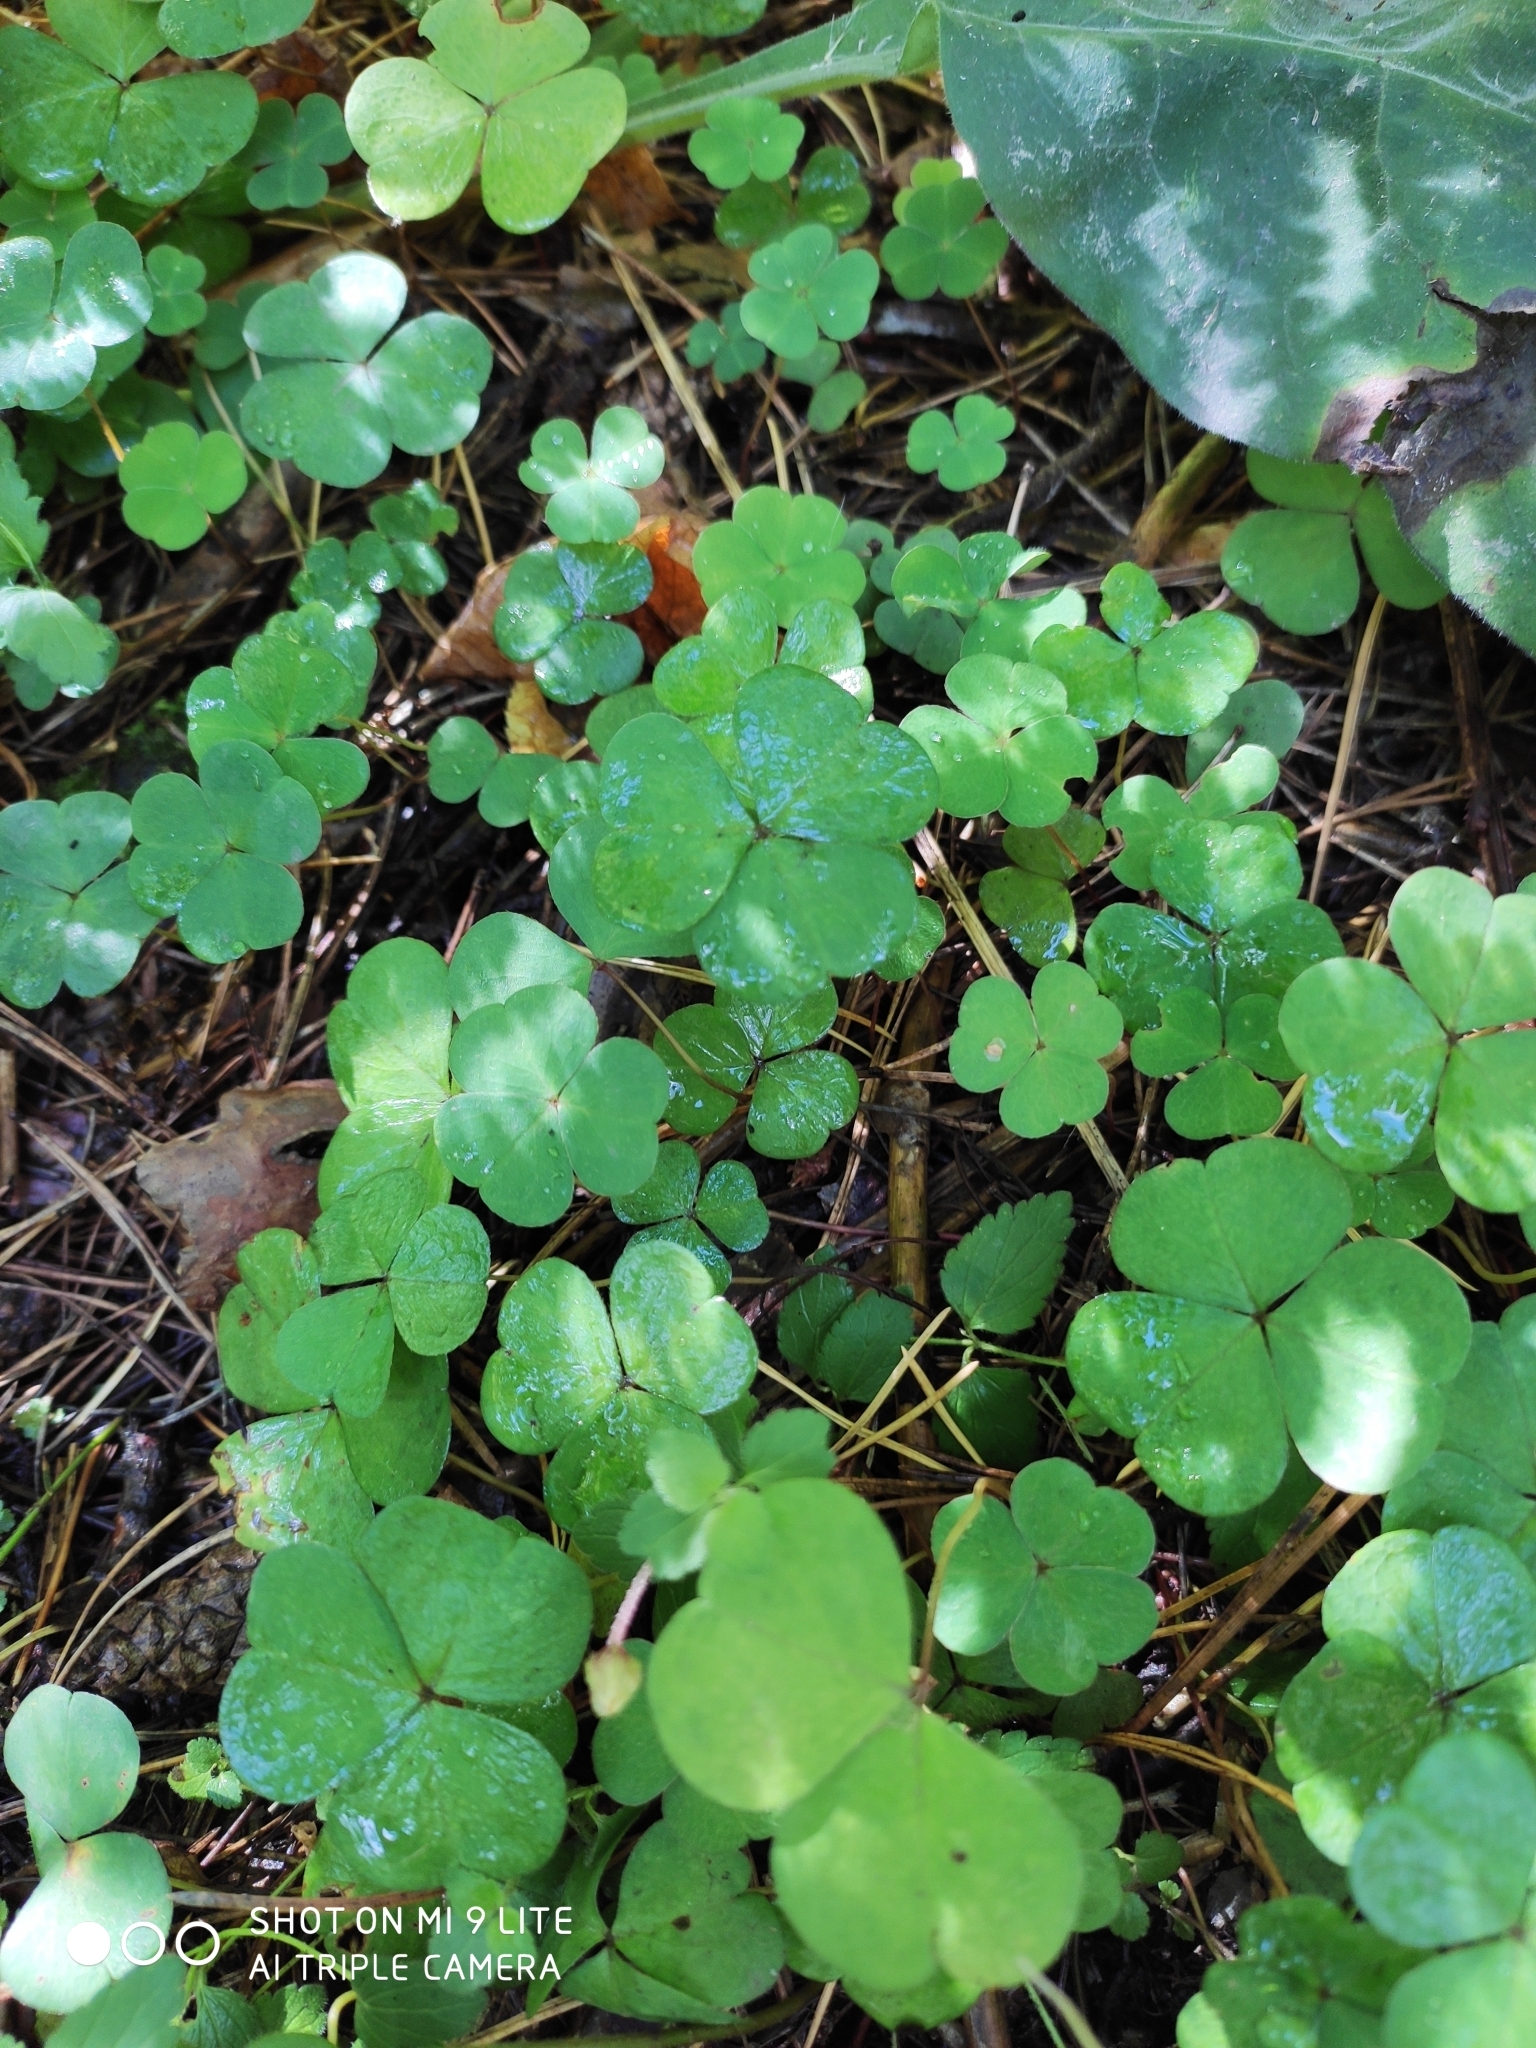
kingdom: Plantae
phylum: Tracheophyta
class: Magnoliopsida
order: Oxalidales
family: Oxalidaceae
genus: Oxalis
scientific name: Oxalis acetosella
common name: Wood-sorrel
